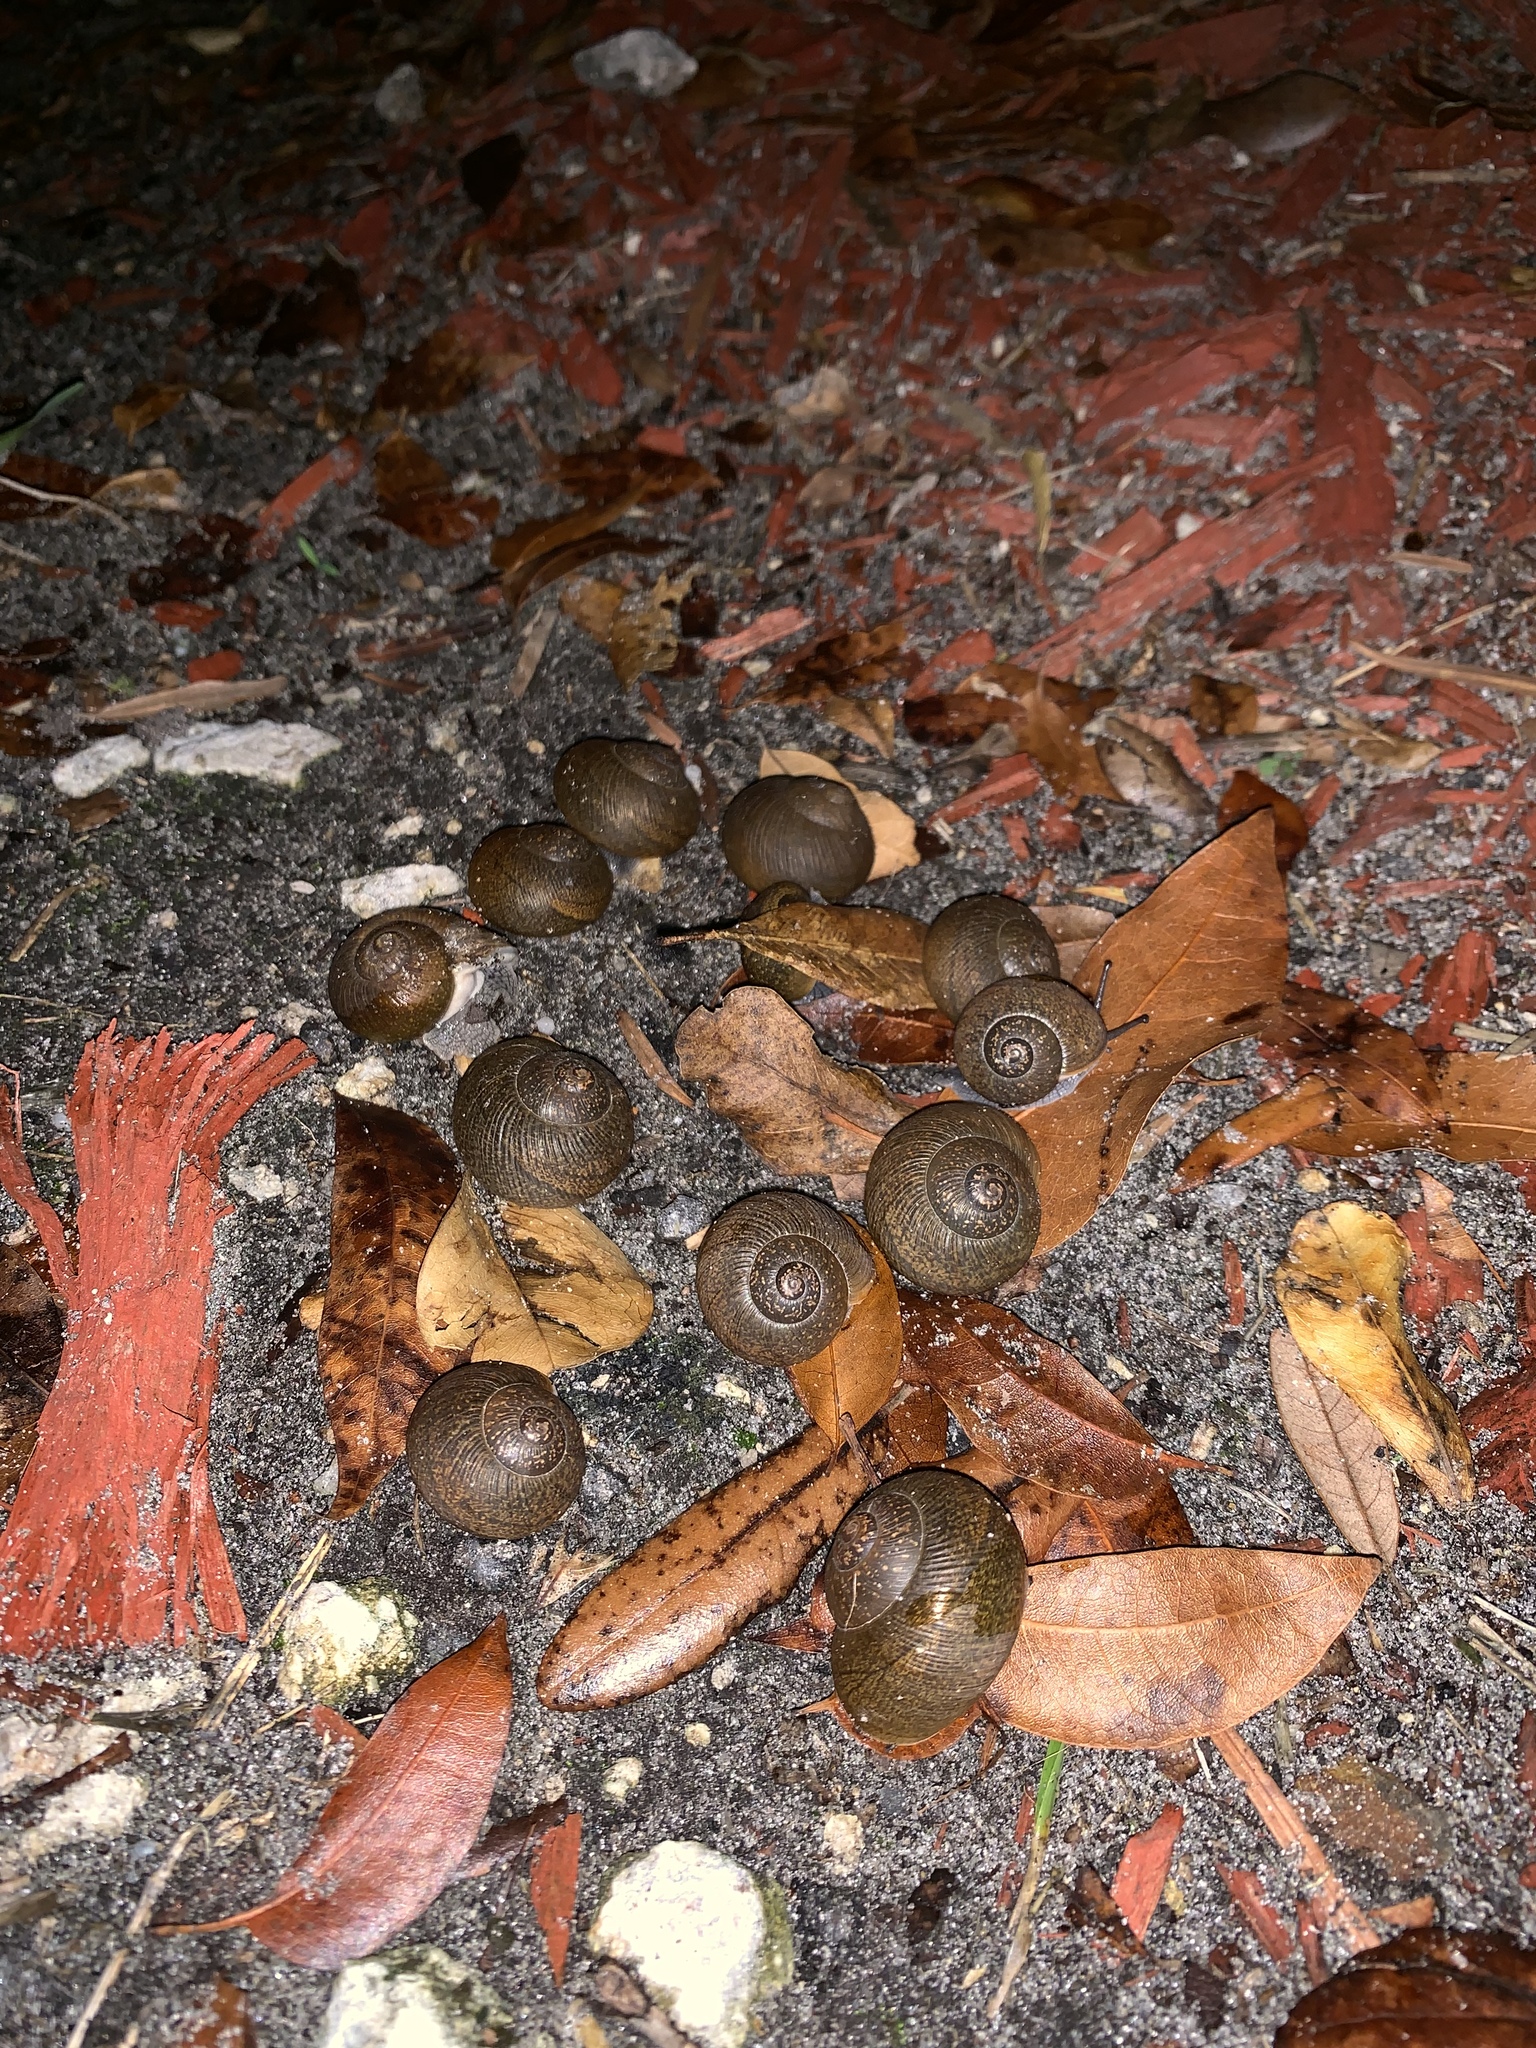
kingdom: Animalia
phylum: Mollusca
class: Gastropoda
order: Stylommatophora
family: Zachrysiidae
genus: Zachrysia
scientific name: Zachrysia provisoria
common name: Garden zachrysia
